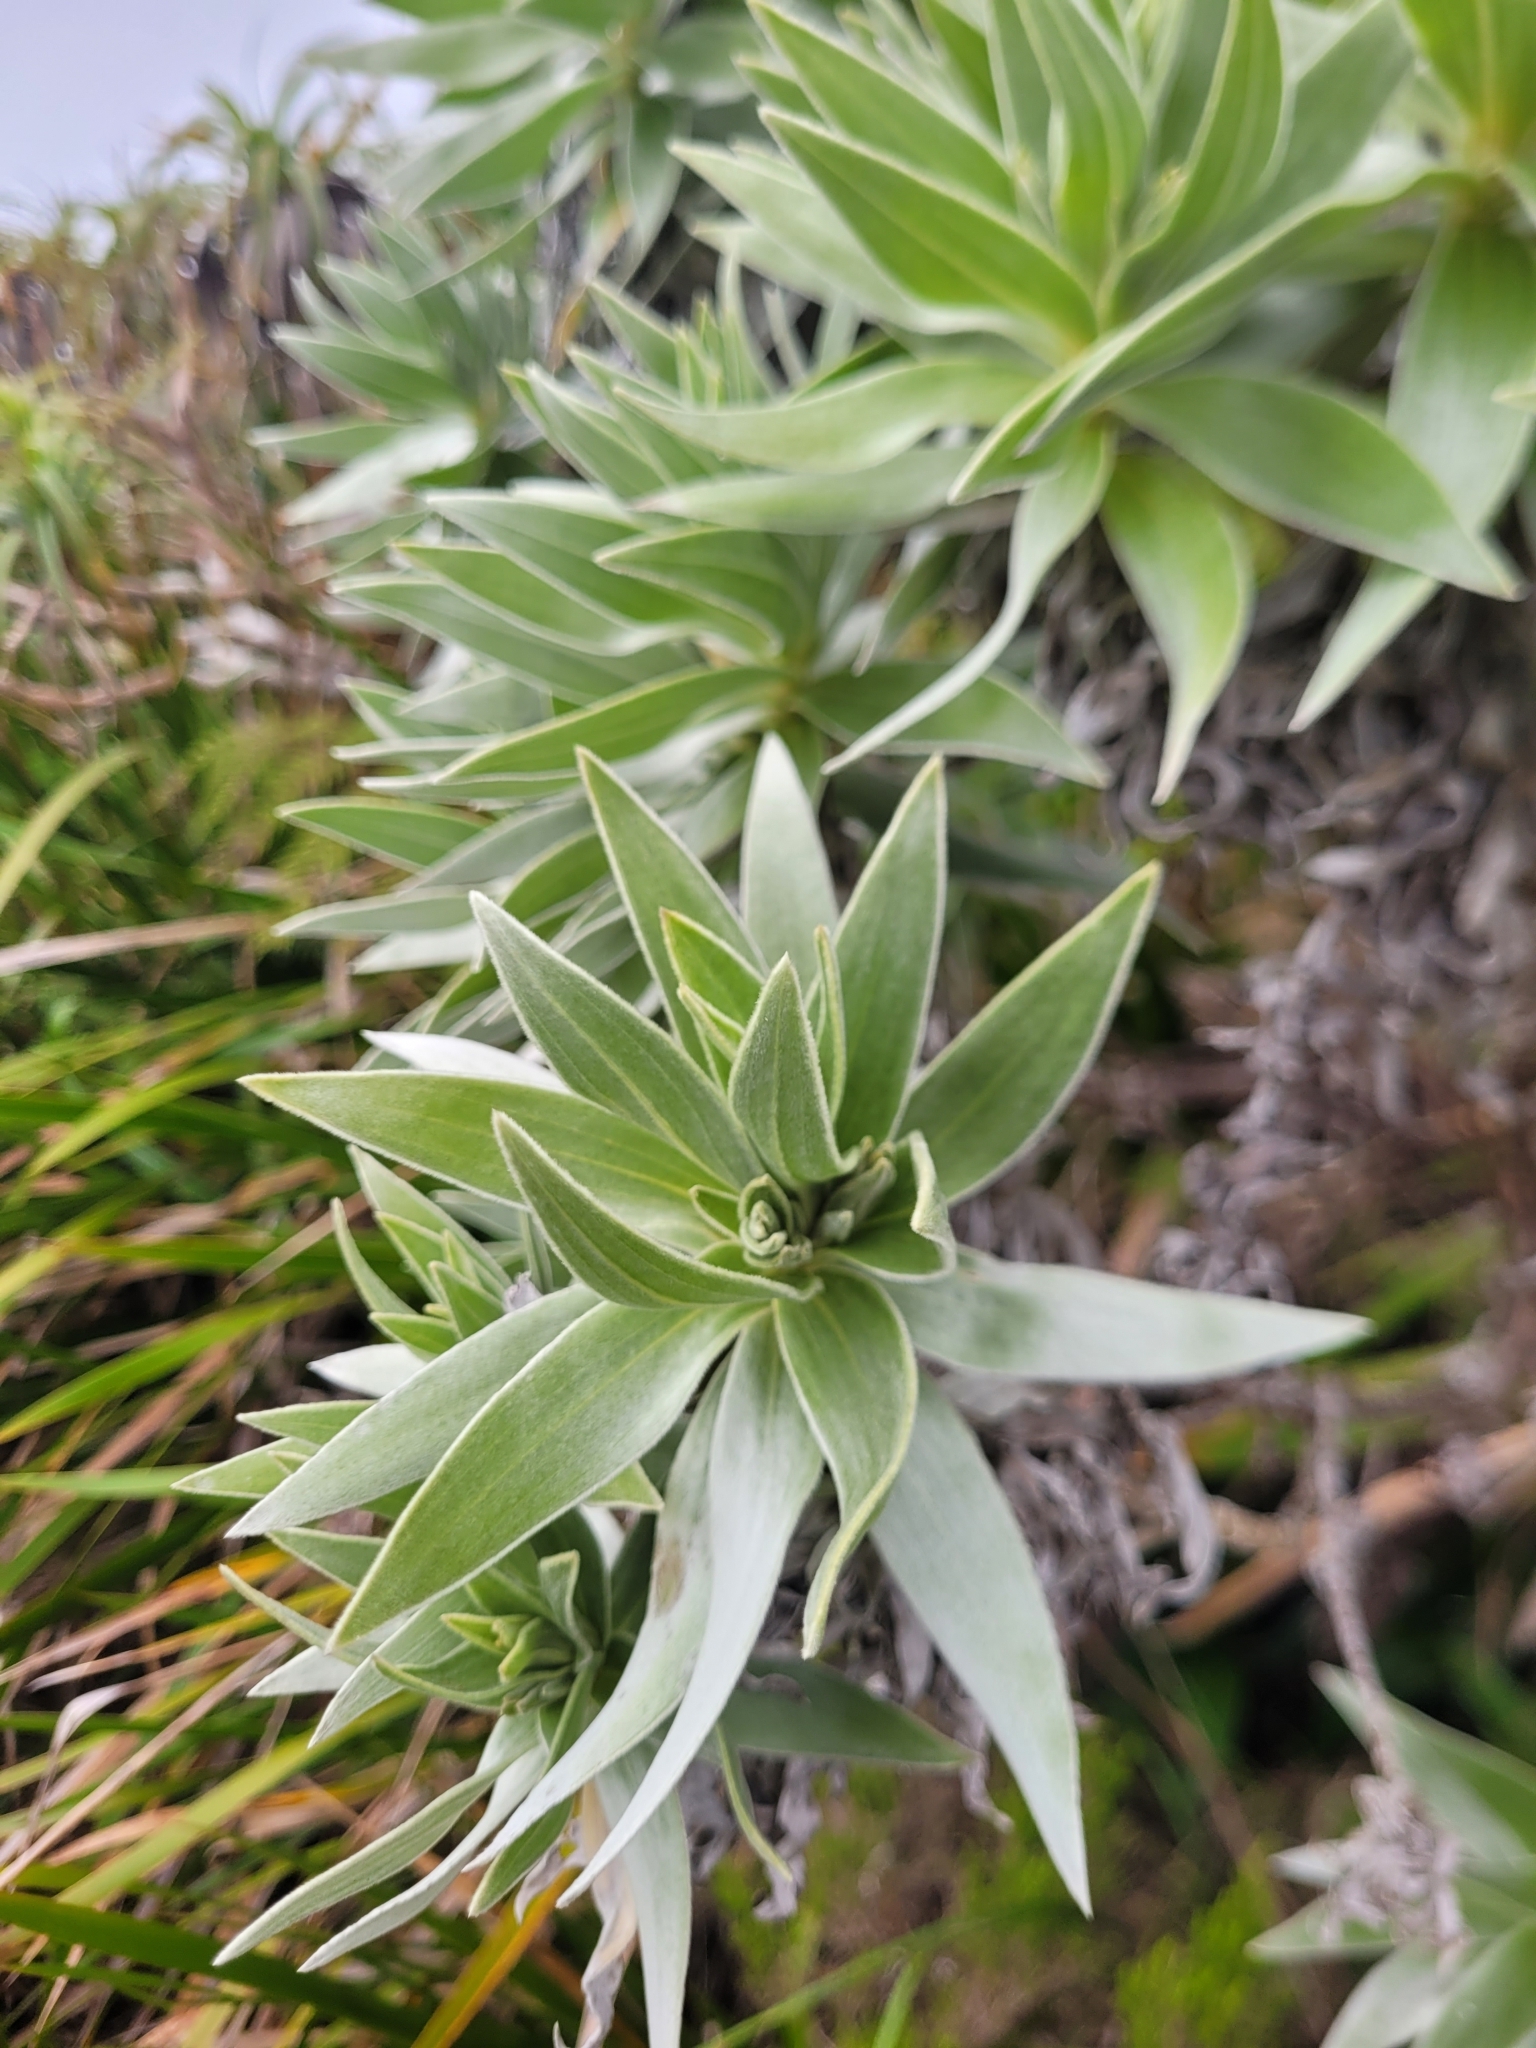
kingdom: Plantae
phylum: Tracheophyta
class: Magnoliopsida
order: Asterales
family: Asteraceae
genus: Helichrysum
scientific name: Helichrysum heliotropifolium
